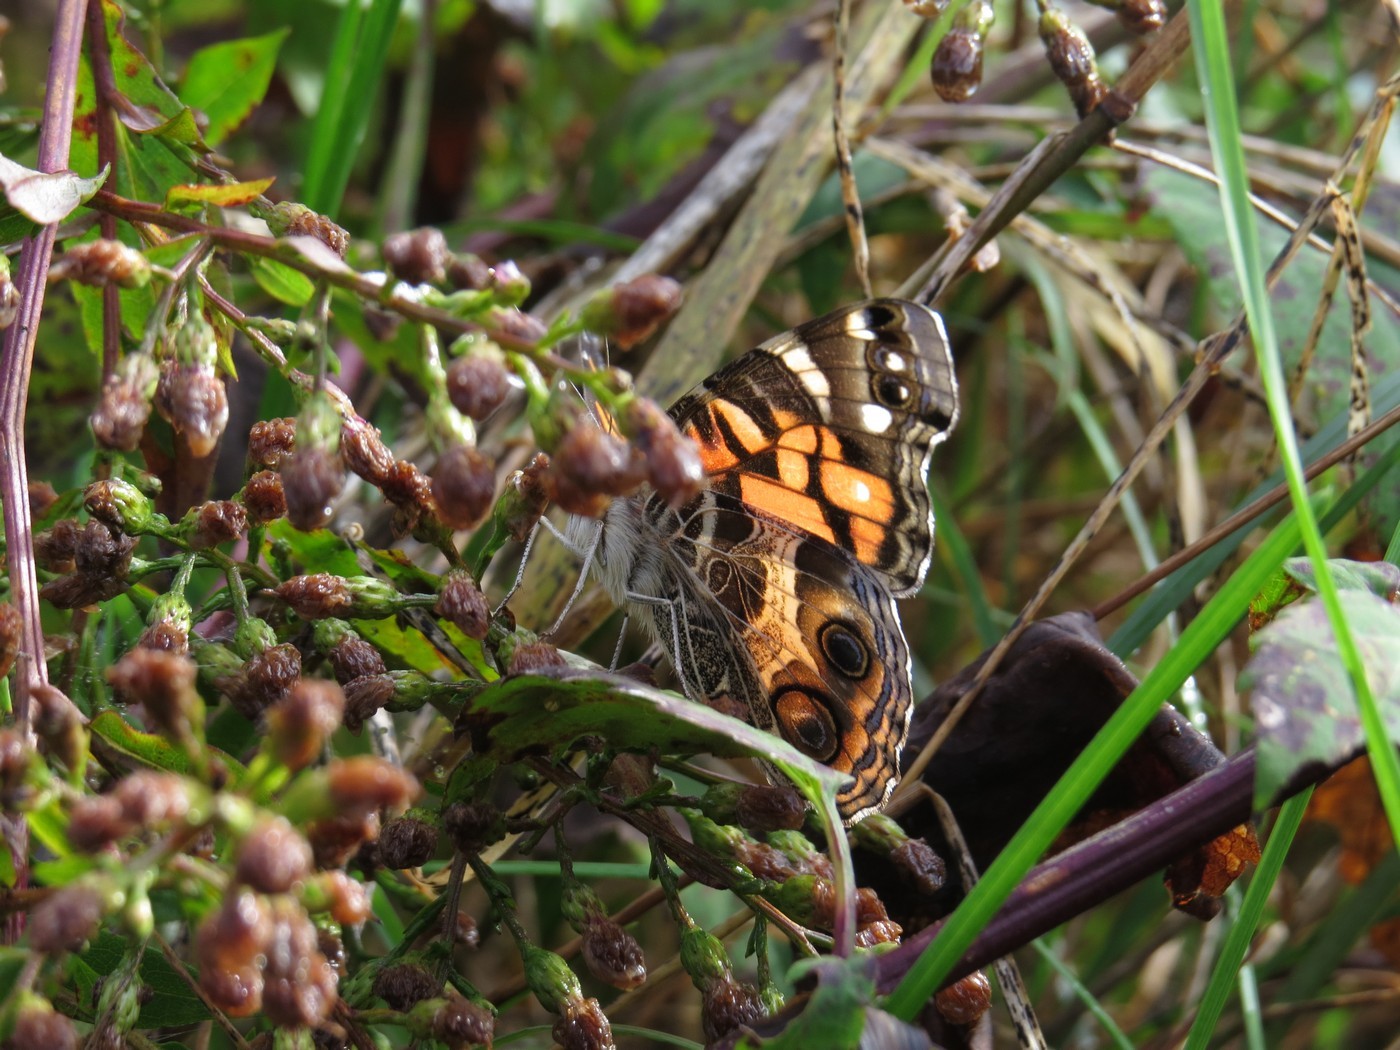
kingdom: Animalia
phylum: Arthropoda
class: Insecta
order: Lepidoptera
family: Nymphalidae
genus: Vanessa
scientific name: Vanessa virginiensis
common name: American lady
